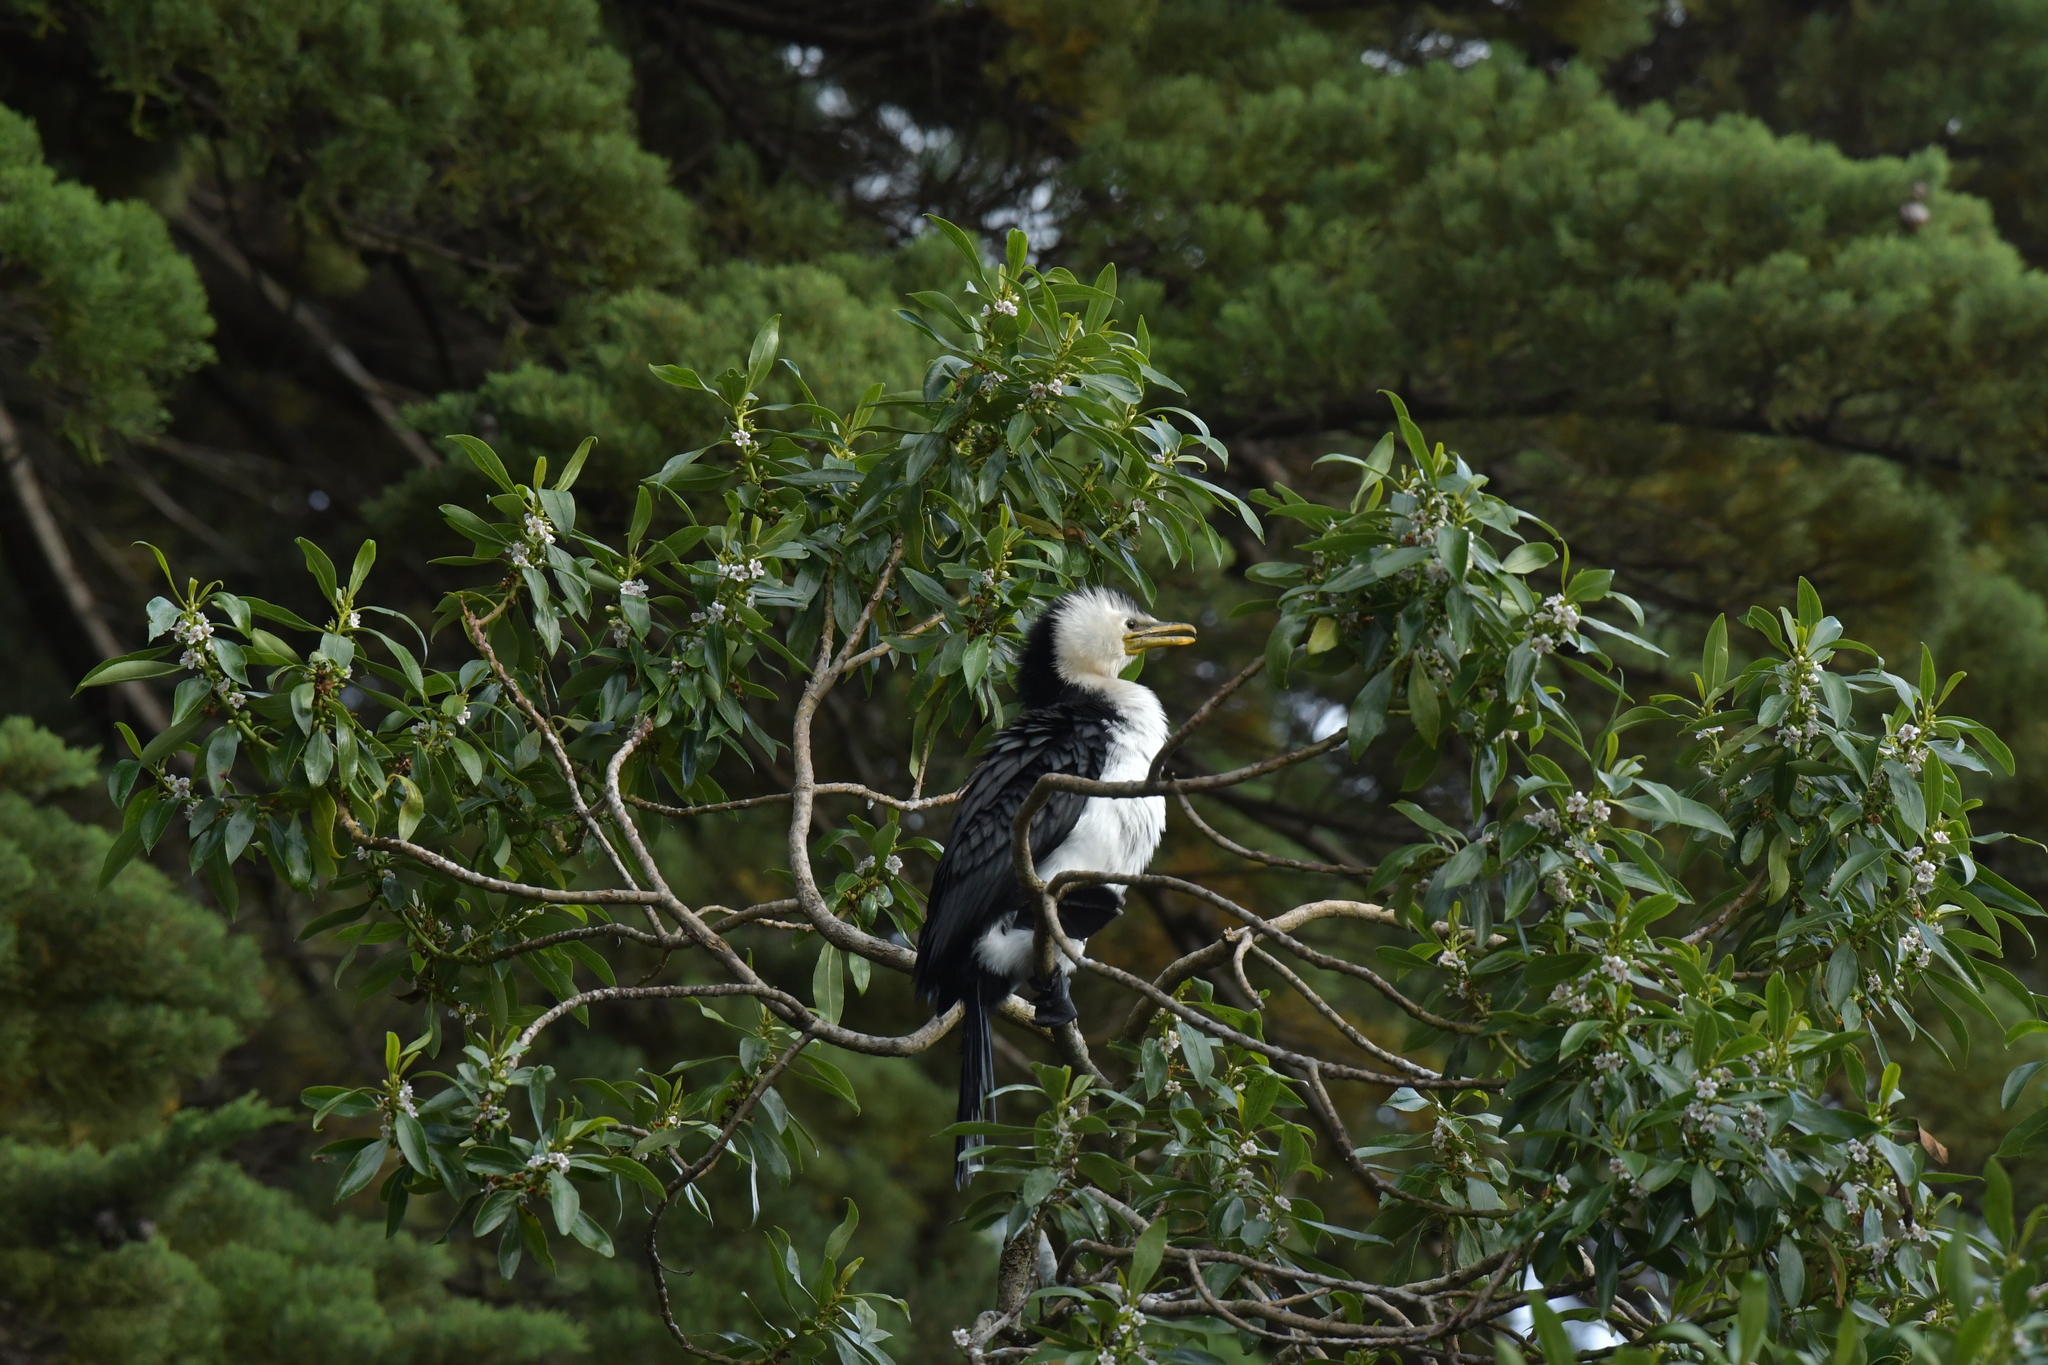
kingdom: Animalia
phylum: Chordata
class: Aves
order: Suliformes
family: Phalacrocoracidae
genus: Microcarbo
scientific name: Microcarbo melanoleucos
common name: Little pied cormorant
